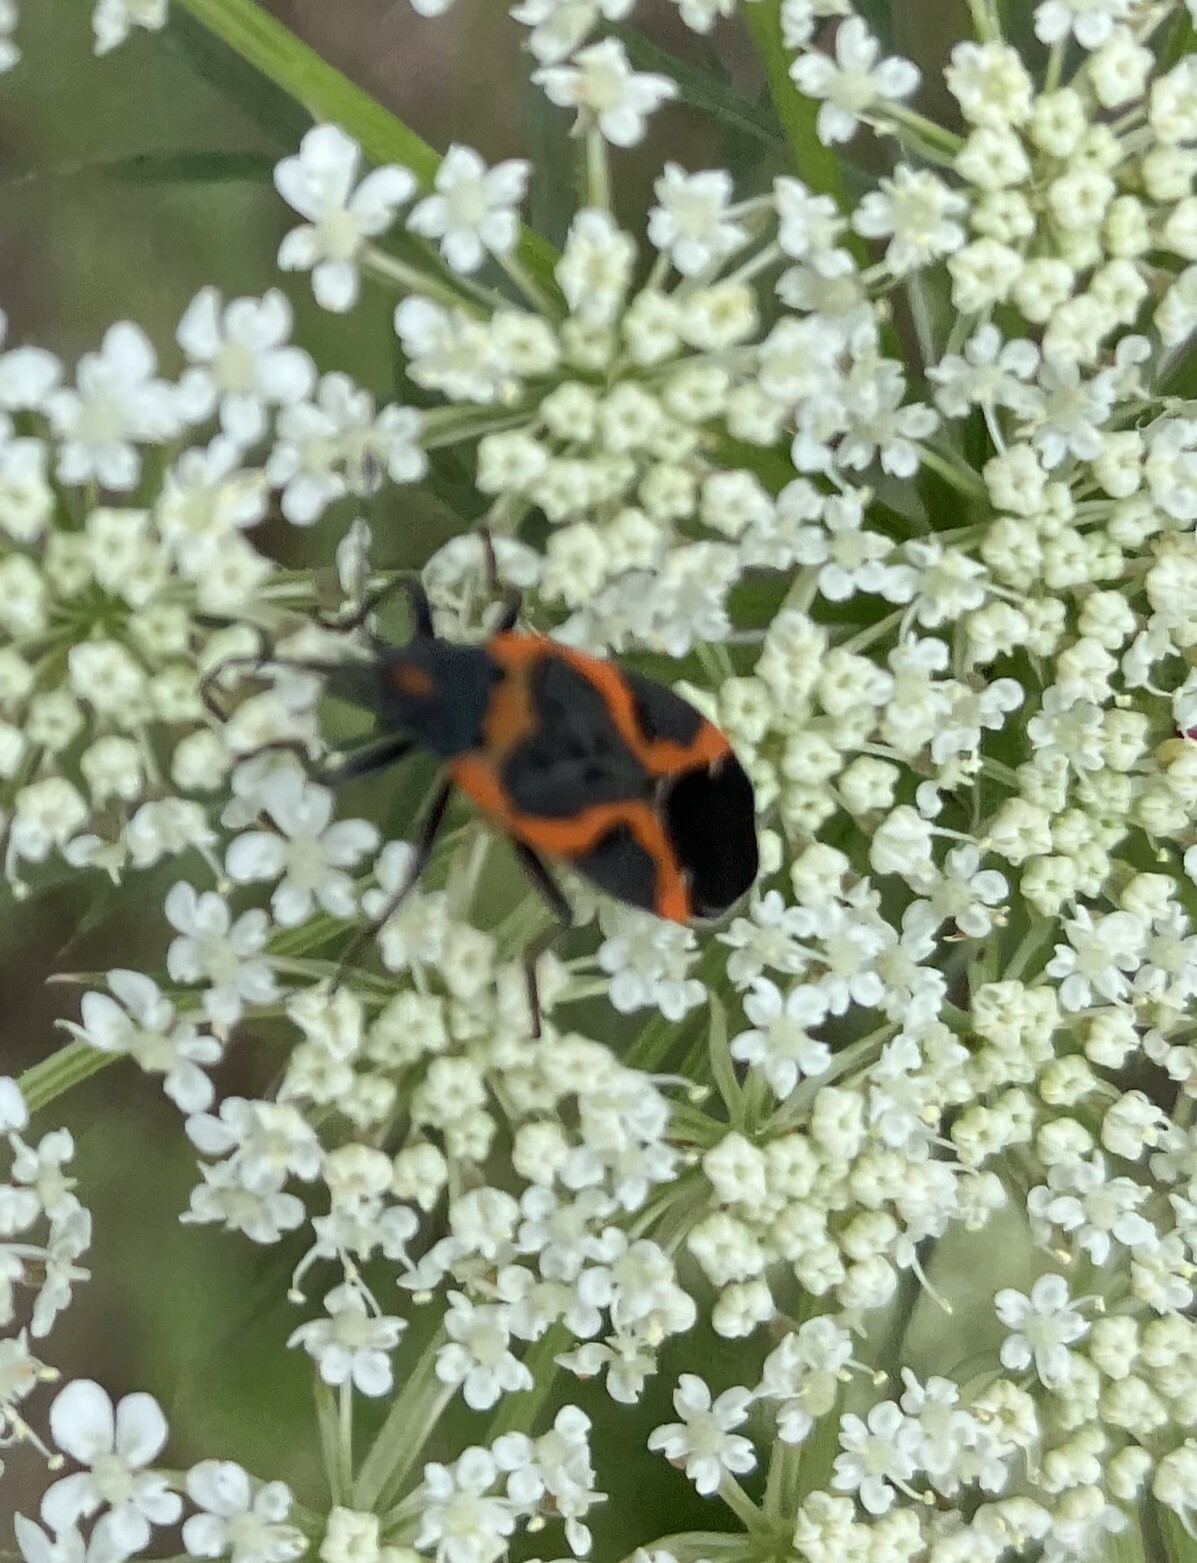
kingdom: Animalia
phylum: Arthropoda
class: Insecta
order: Hemiptera
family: Lygaeidae
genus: Lygaeus
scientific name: Lygaeus kalmii
